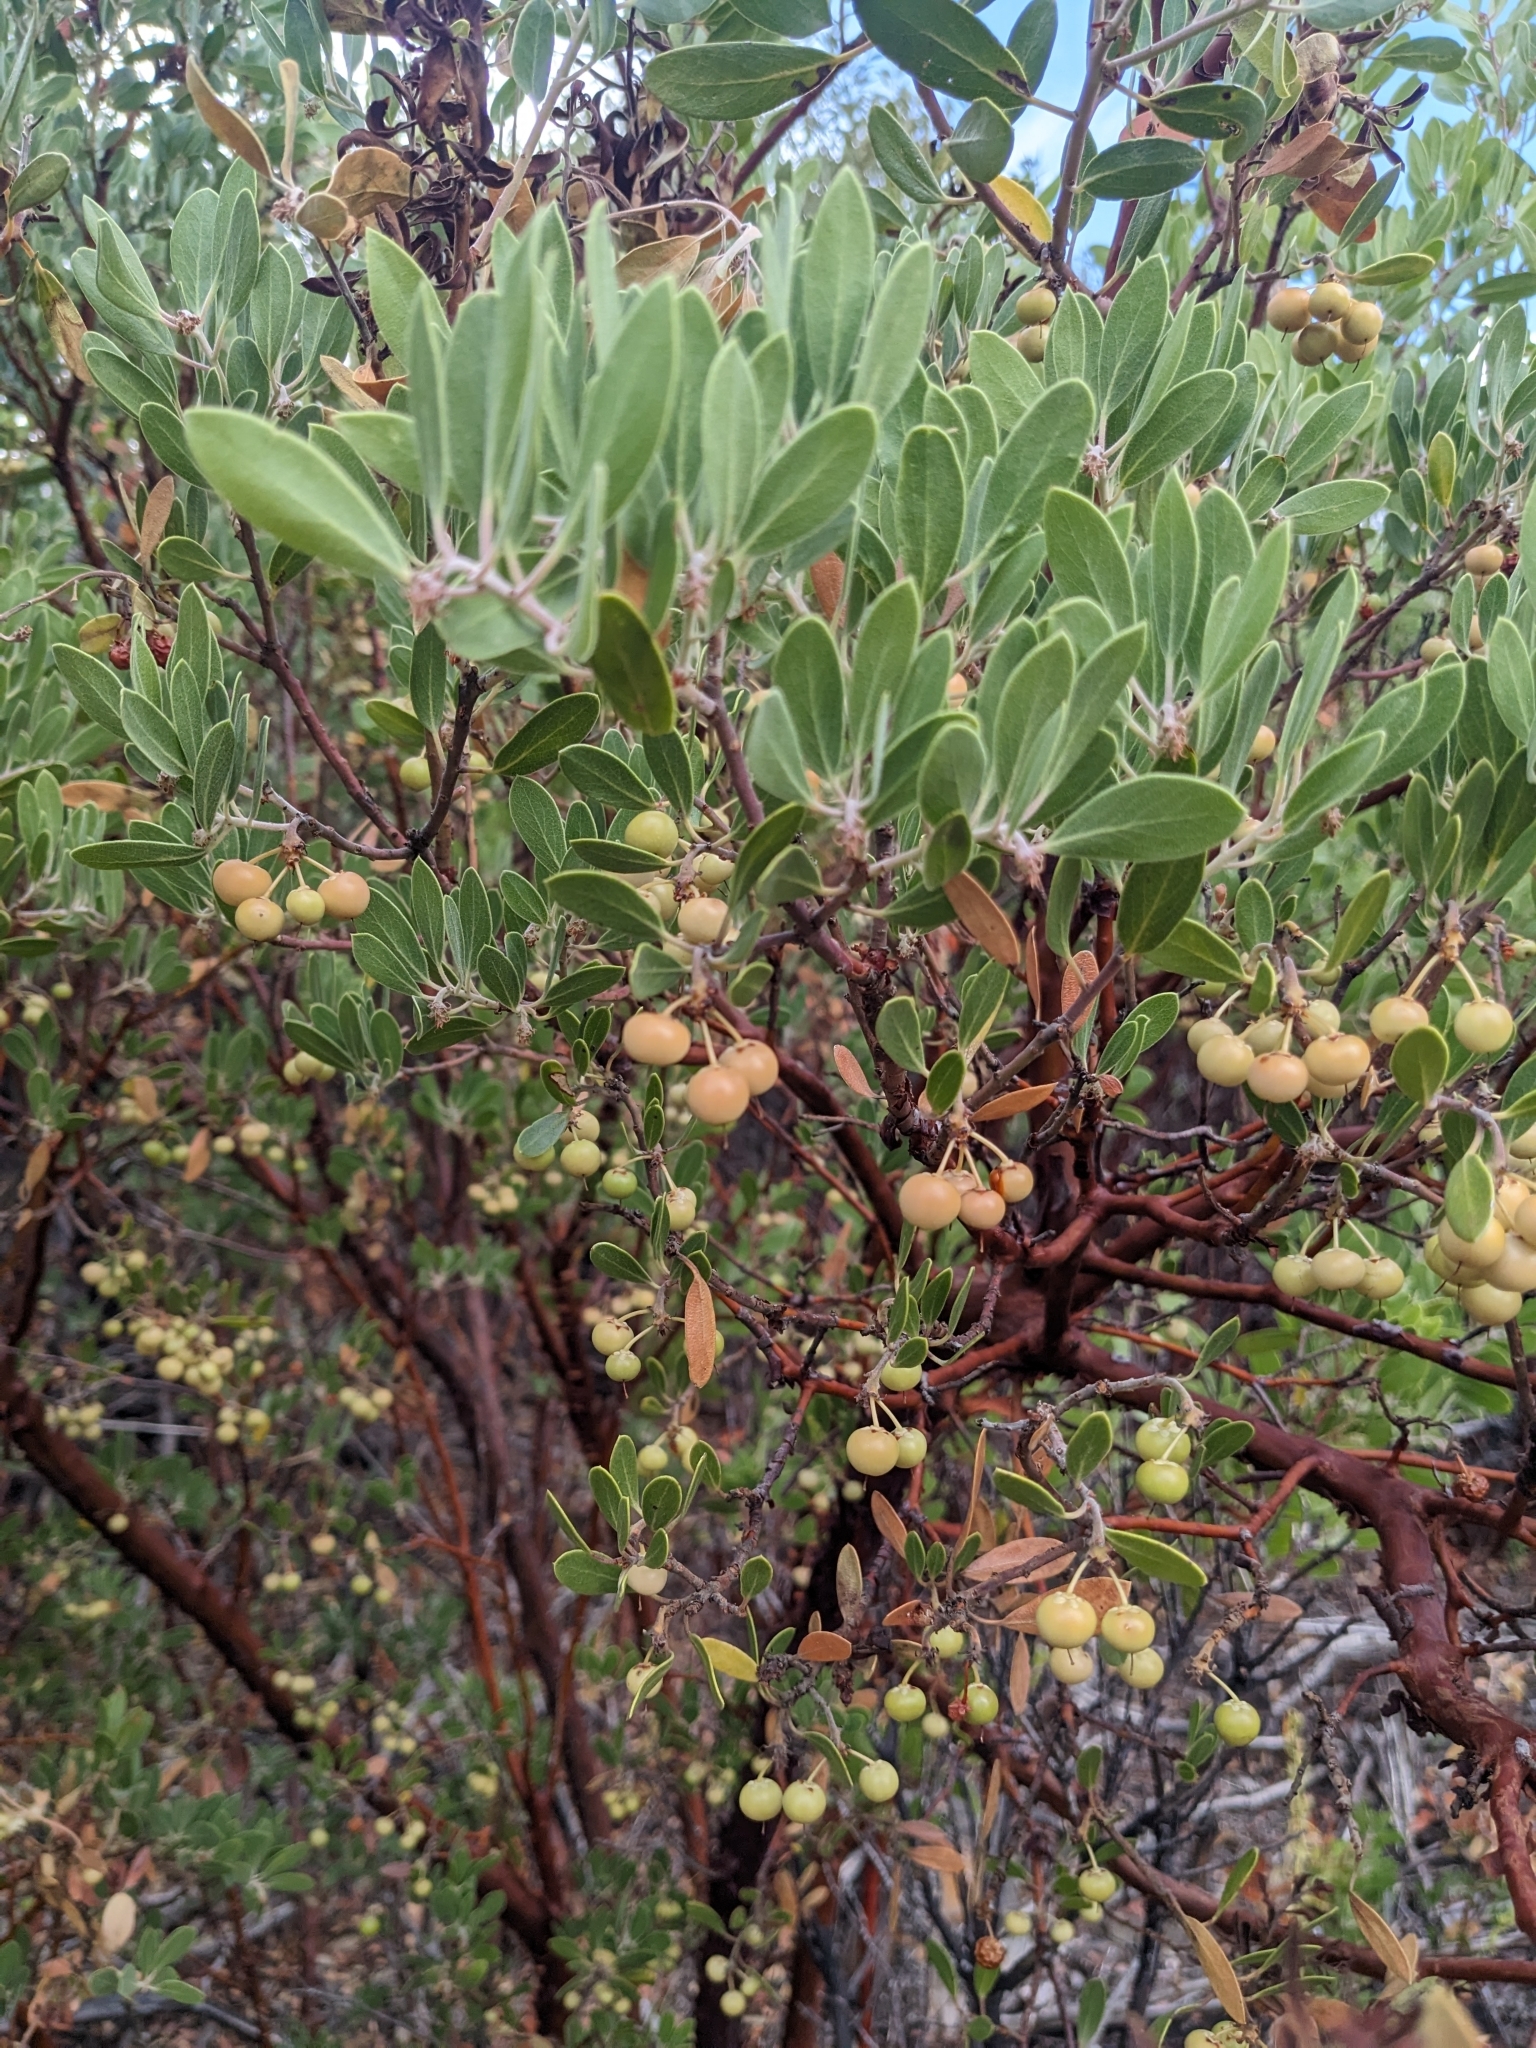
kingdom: Plantae
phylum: Tracheophyta
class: Magnoliopsida
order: Ericales
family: Ericaceae
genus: Arctostaphylos
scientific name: Arctostaphylos pungens
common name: Mexican manzanita
